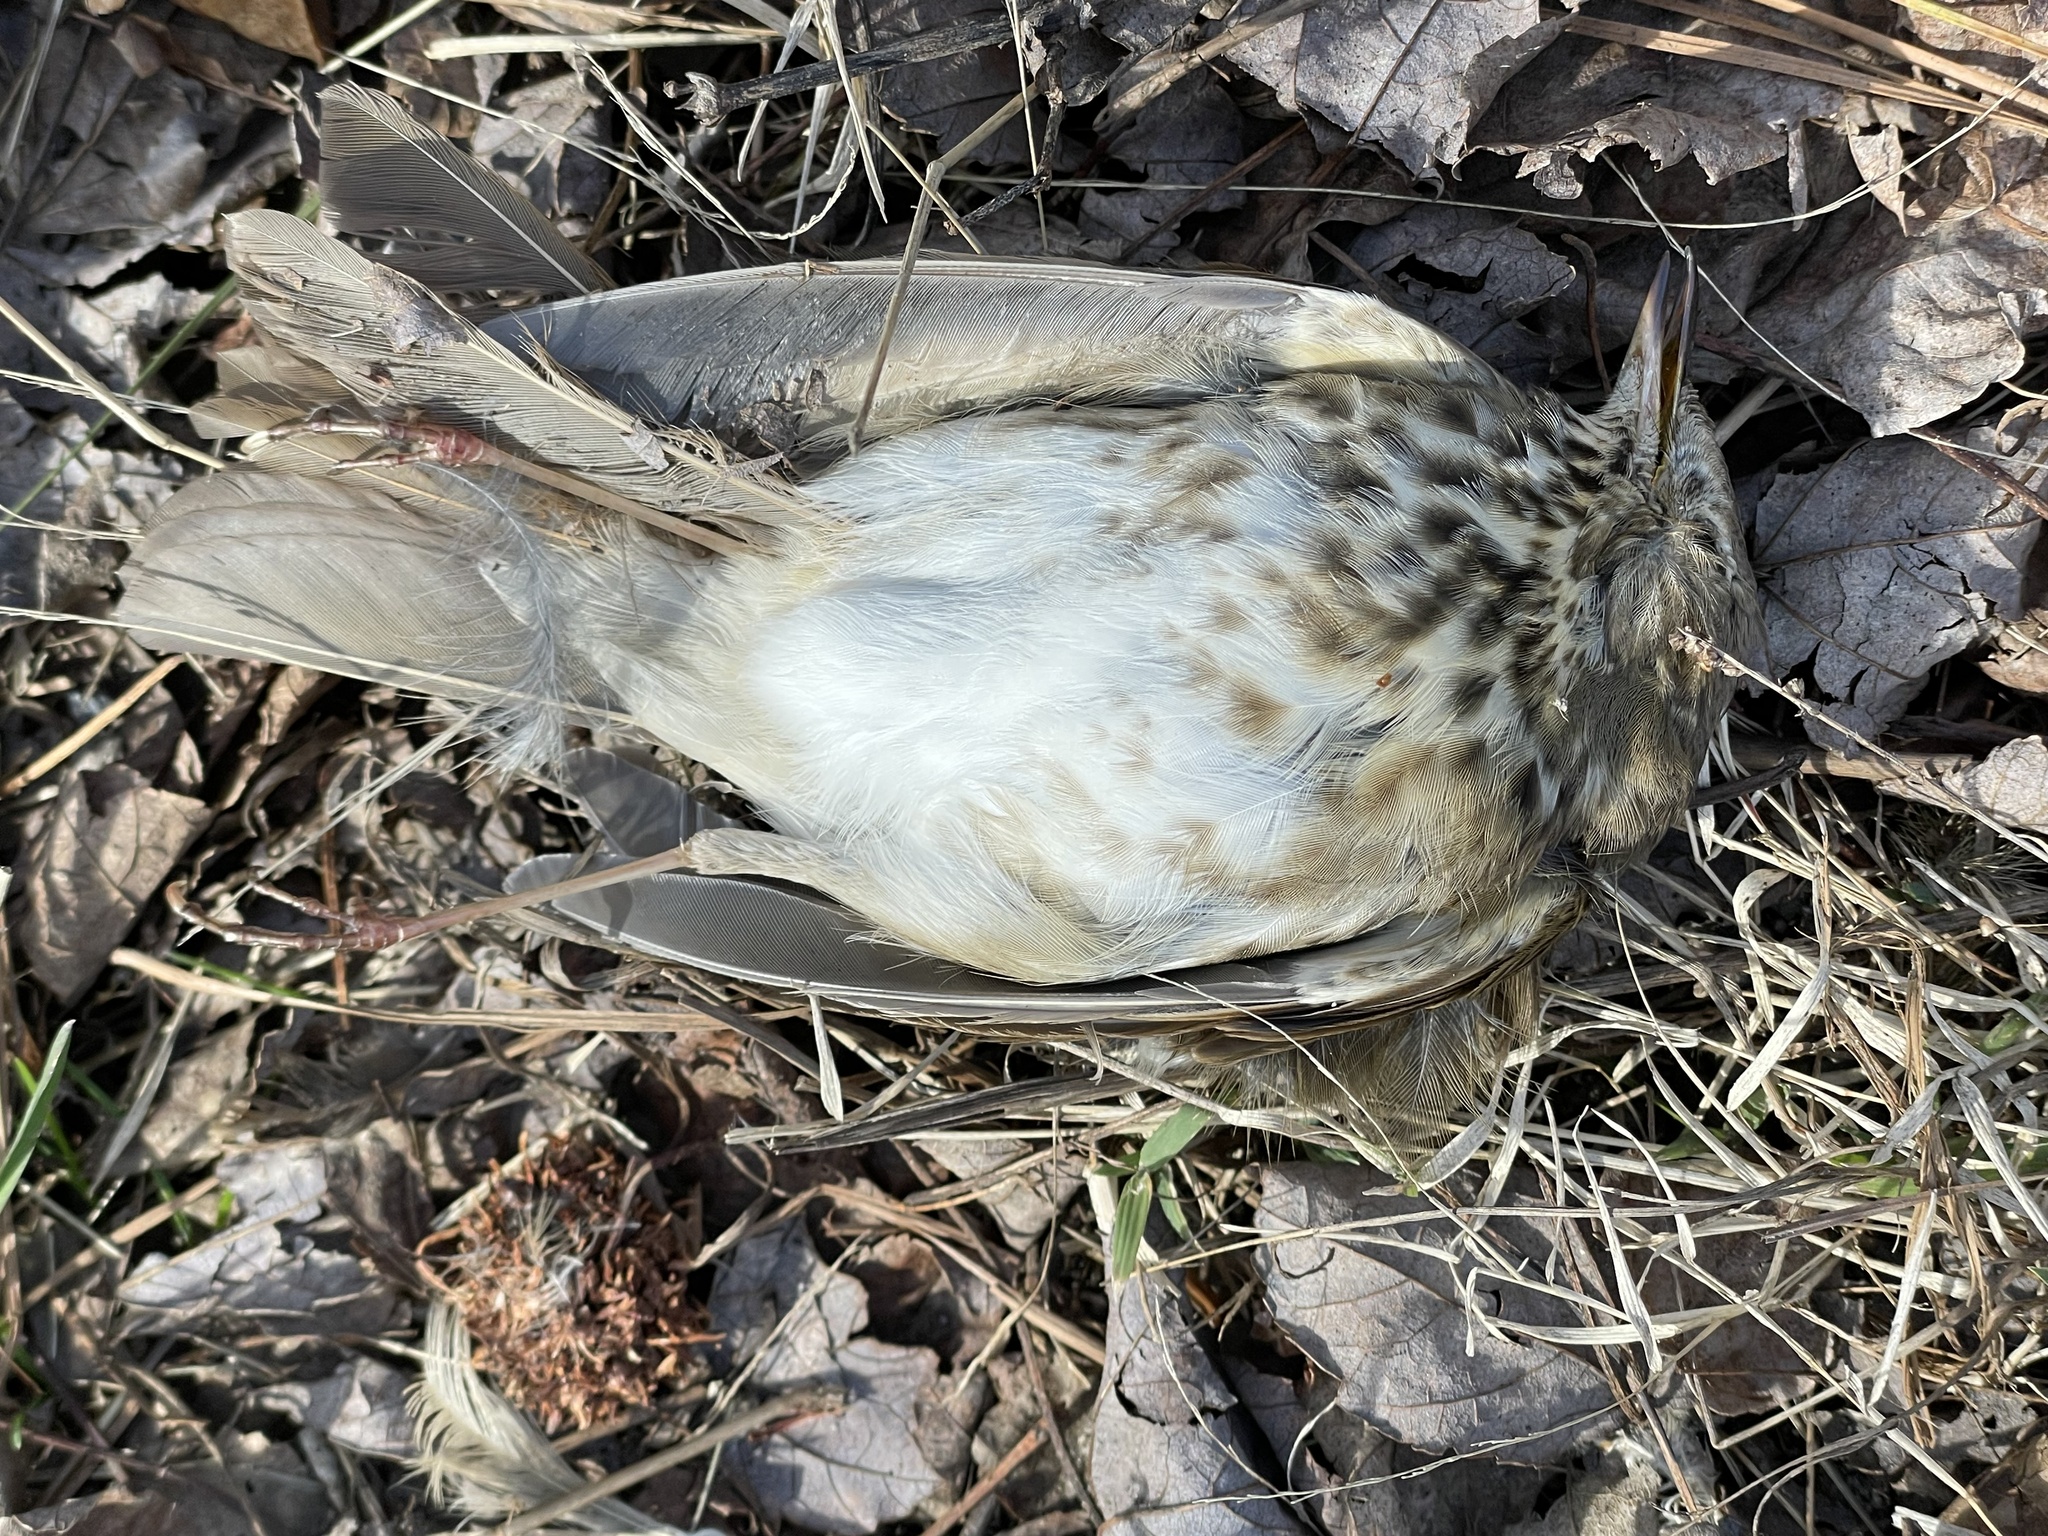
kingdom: Animalia
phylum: Chordata
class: Aves
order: Passeriformes
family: Turdidae
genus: Catharus
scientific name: Catharus guttatus
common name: Hermit thrush
